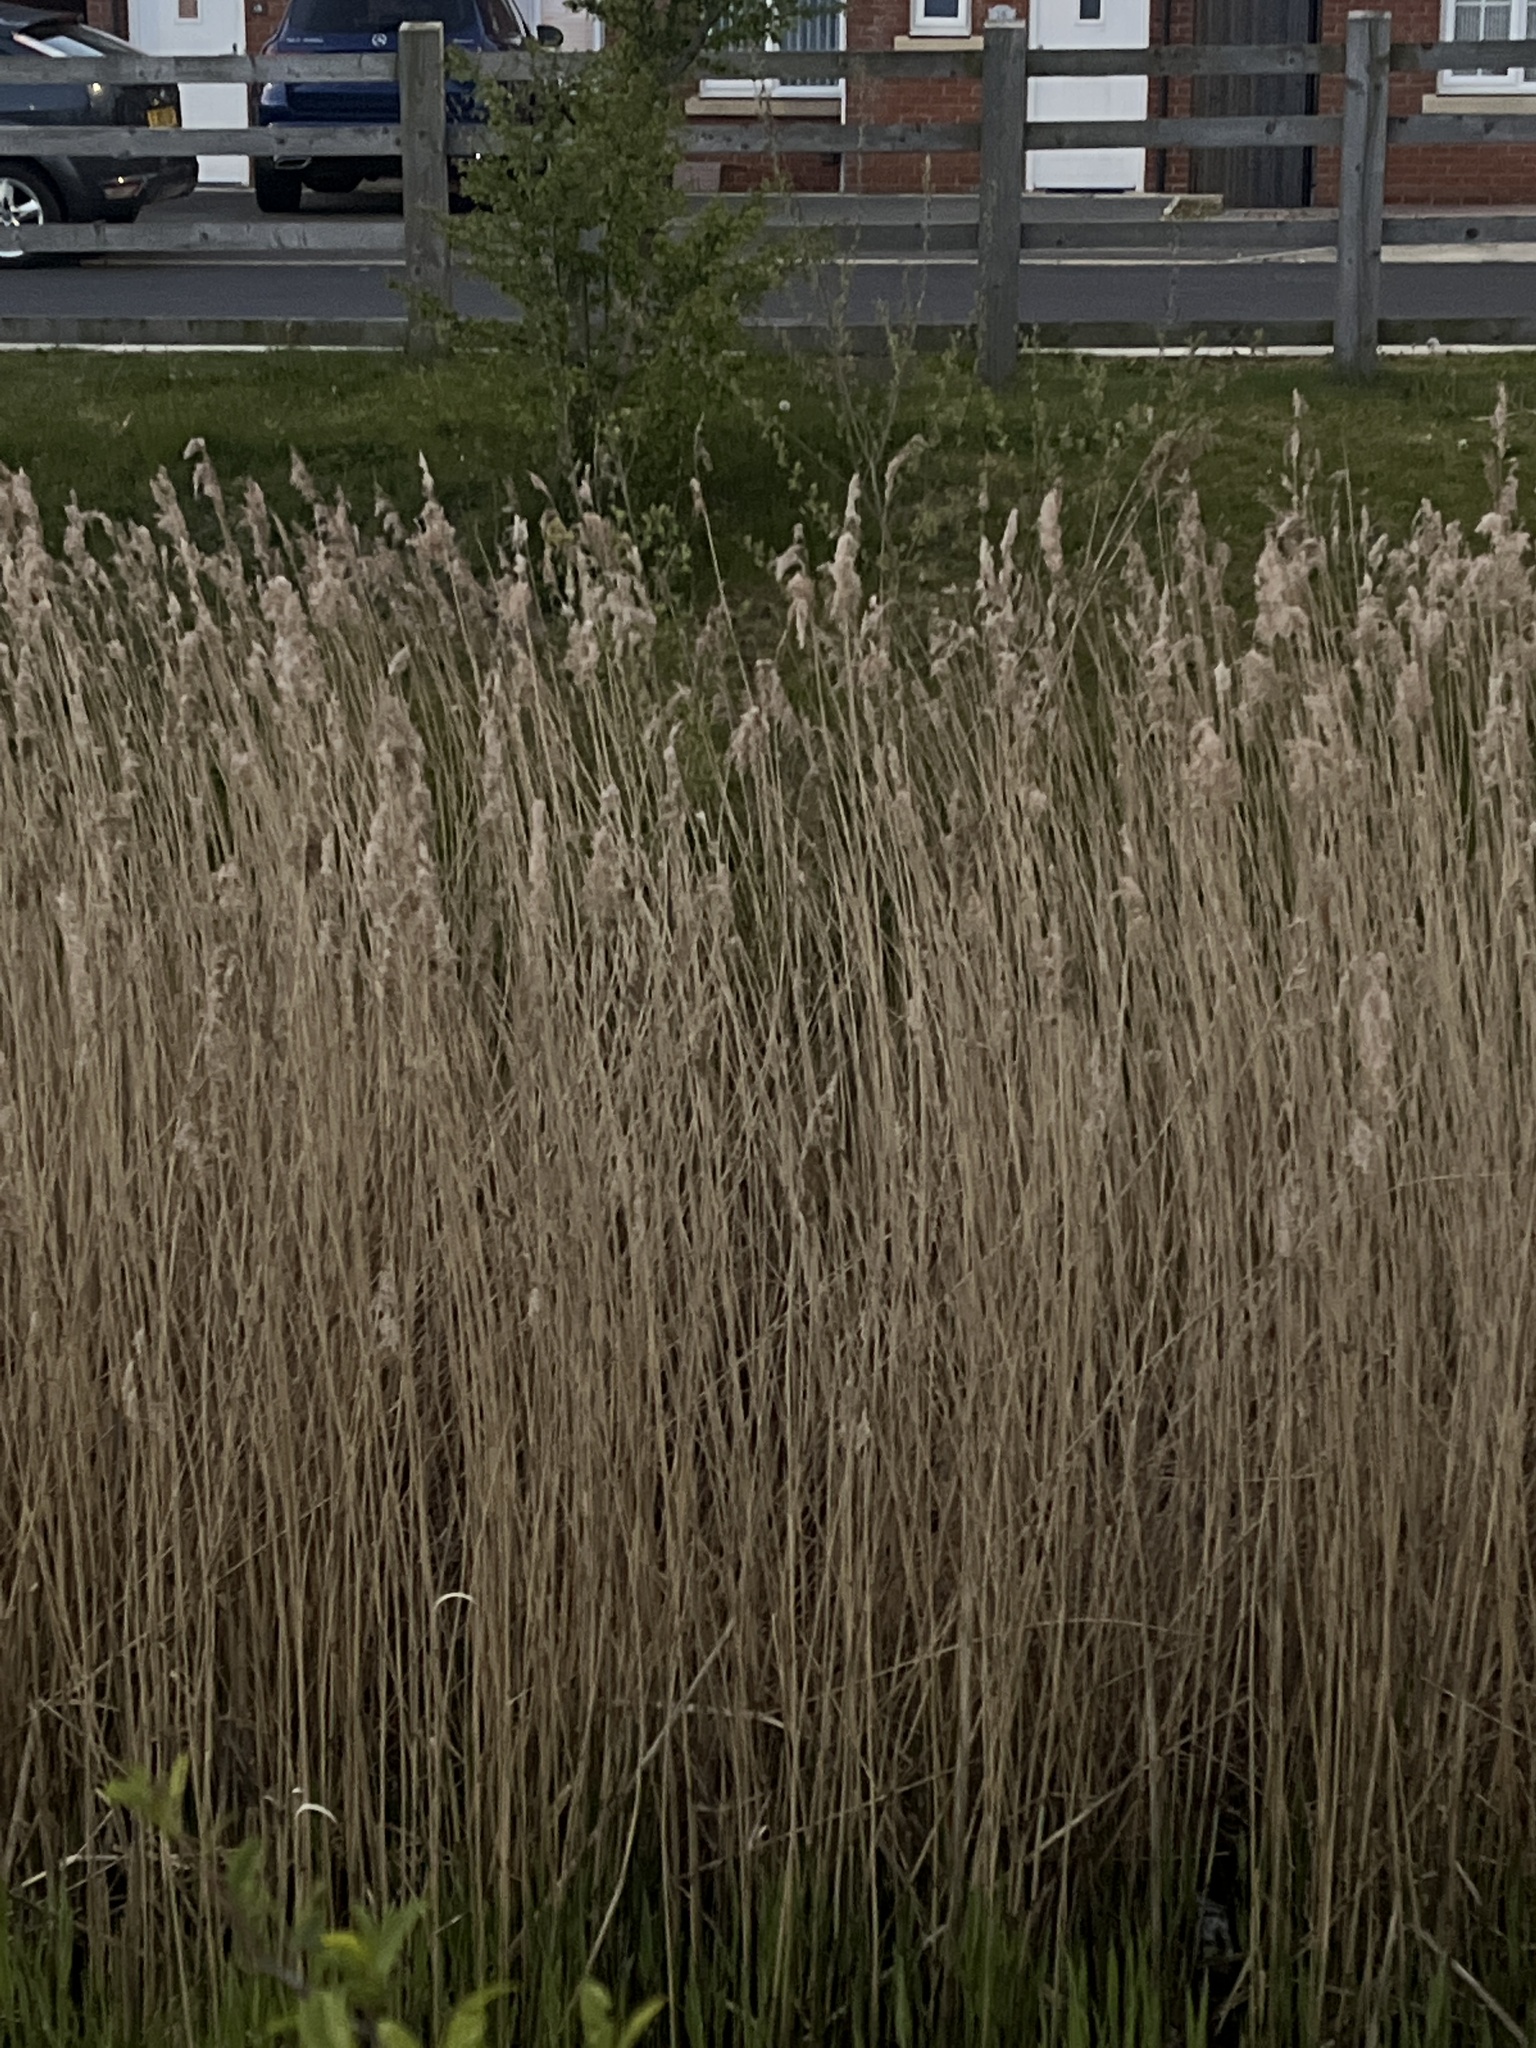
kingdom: Plantae
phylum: Tracheophyta
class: Liliopsida
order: Poales
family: Poaceae
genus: Phragmites
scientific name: Phragmites australis
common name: Common reed
